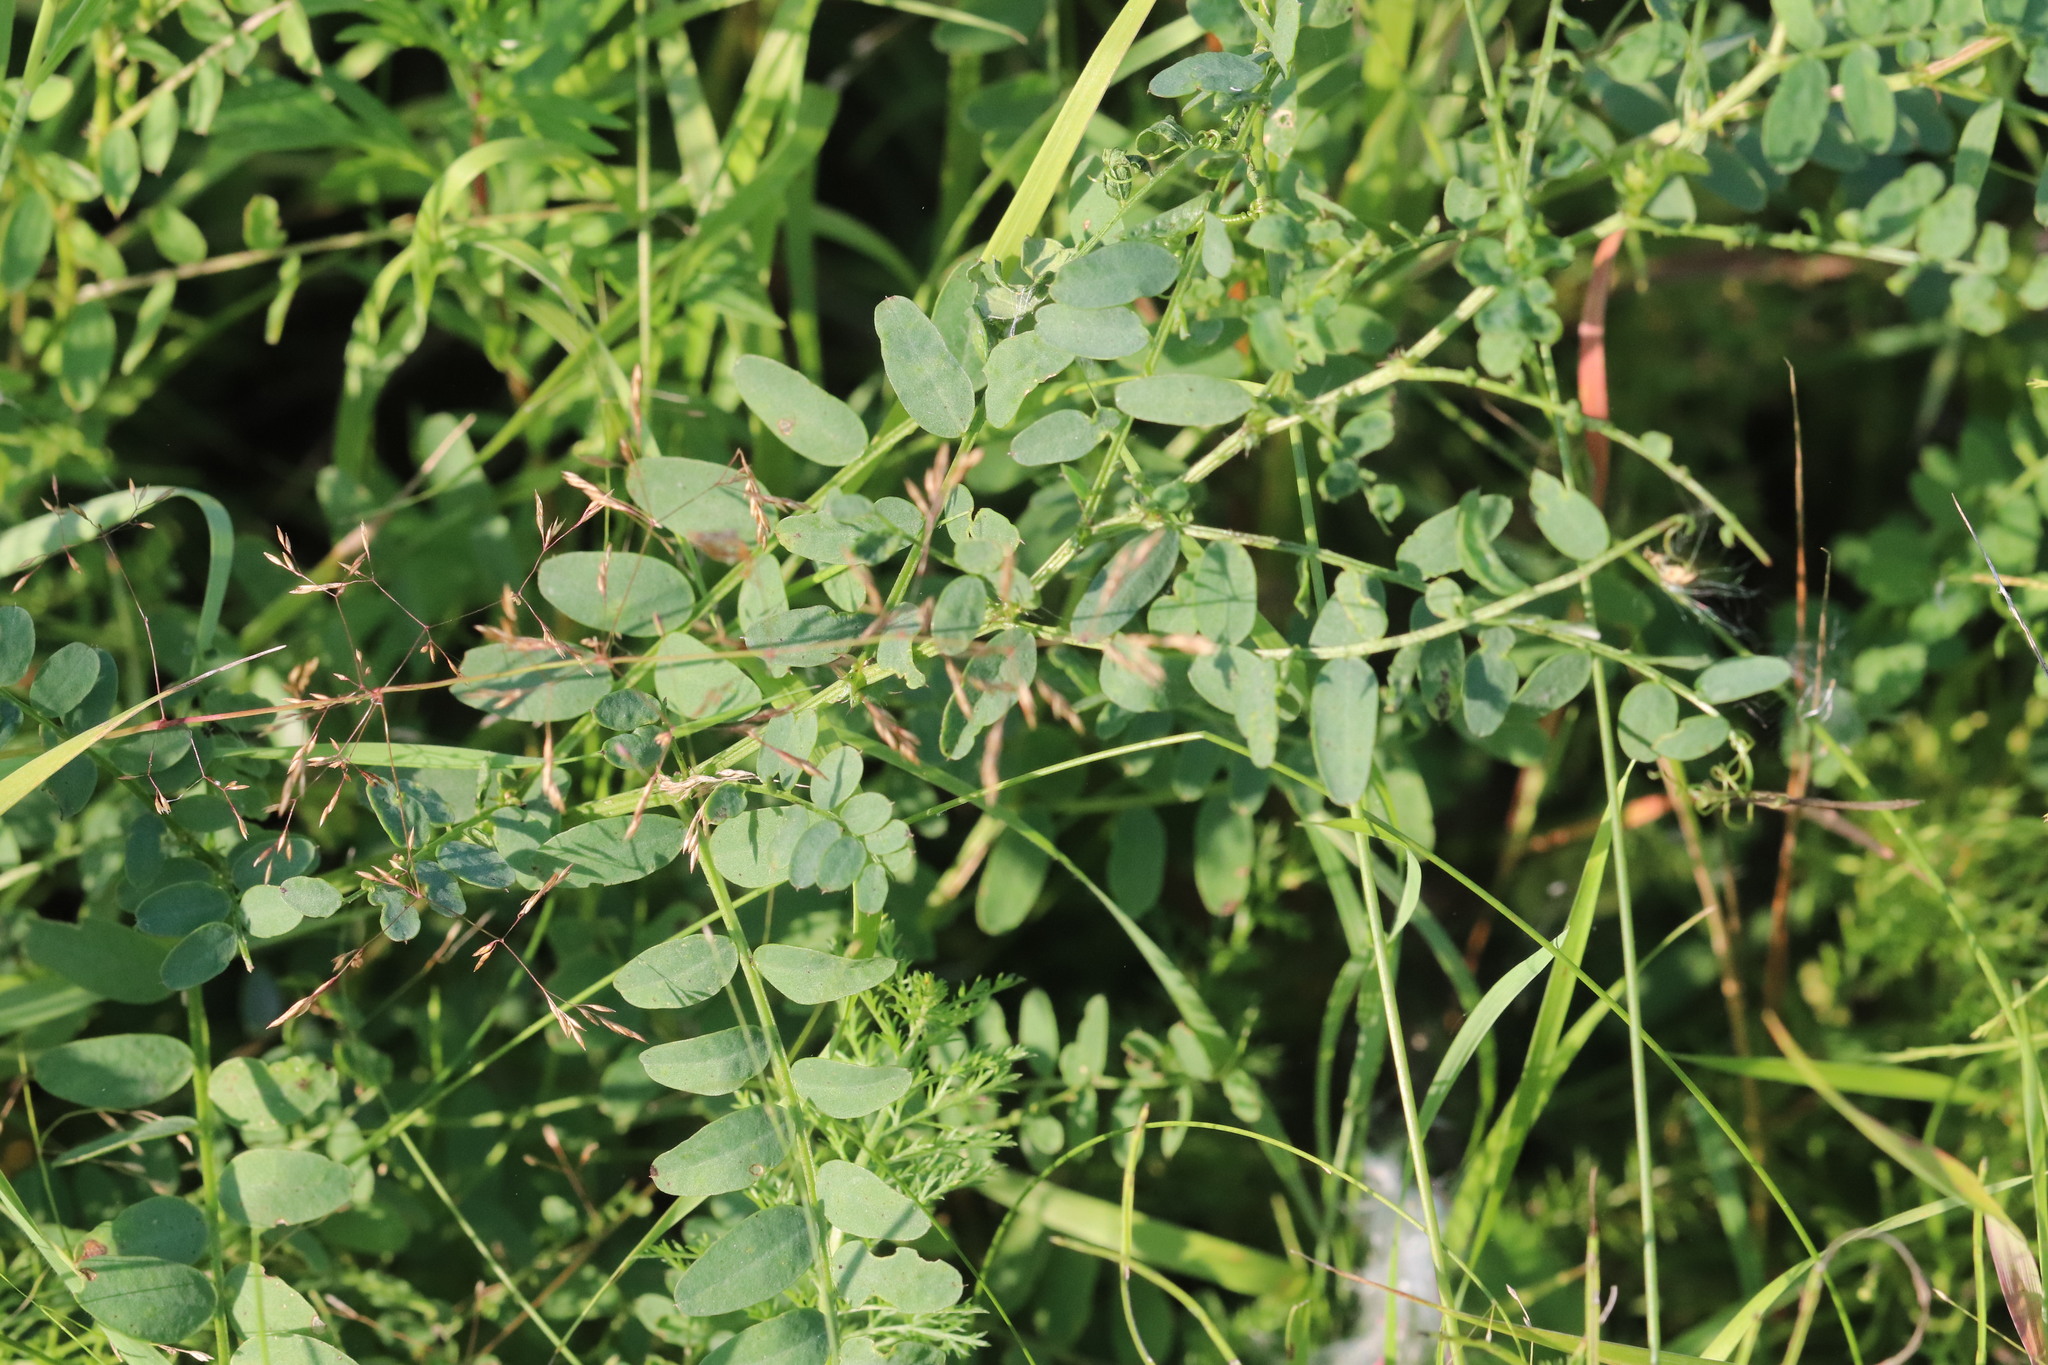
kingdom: Plantae
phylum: Tracheophyta
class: Magnoliopsida
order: Fabales
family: Fabaceae
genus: Vicia
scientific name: Vicia sylvatica
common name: Wood vetch
